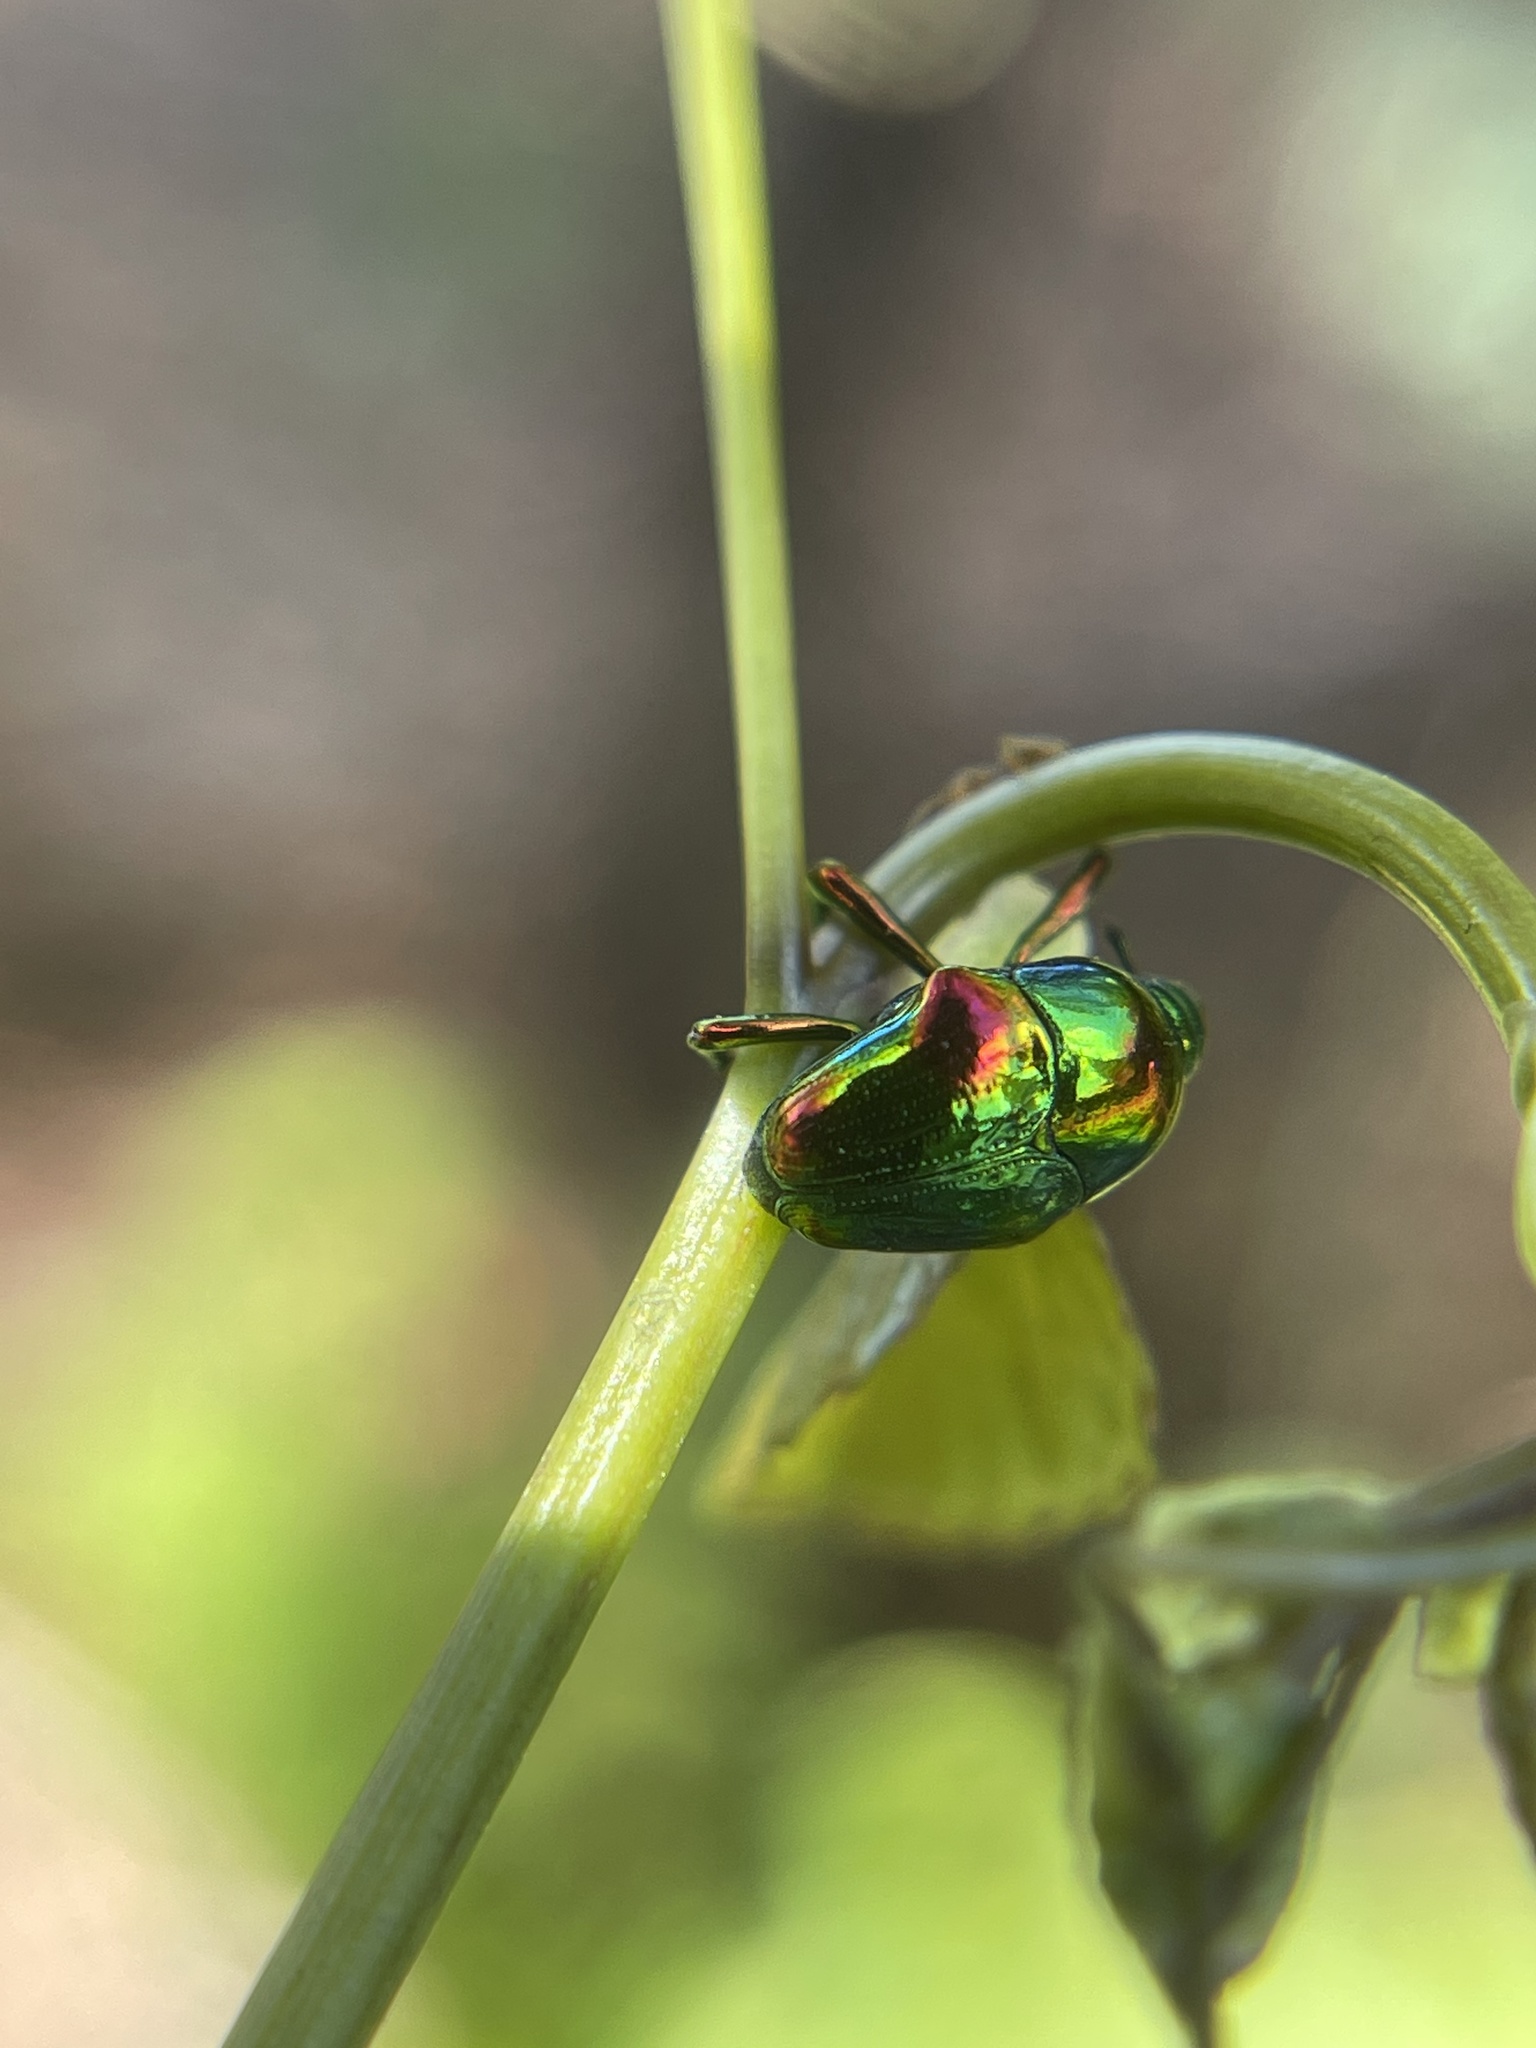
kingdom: Animalia
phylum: Arthropoda
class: Insecta
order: Coleoptera
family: Eurhynchidae
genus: Eurhinus
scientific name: Eurhinus magnificus
